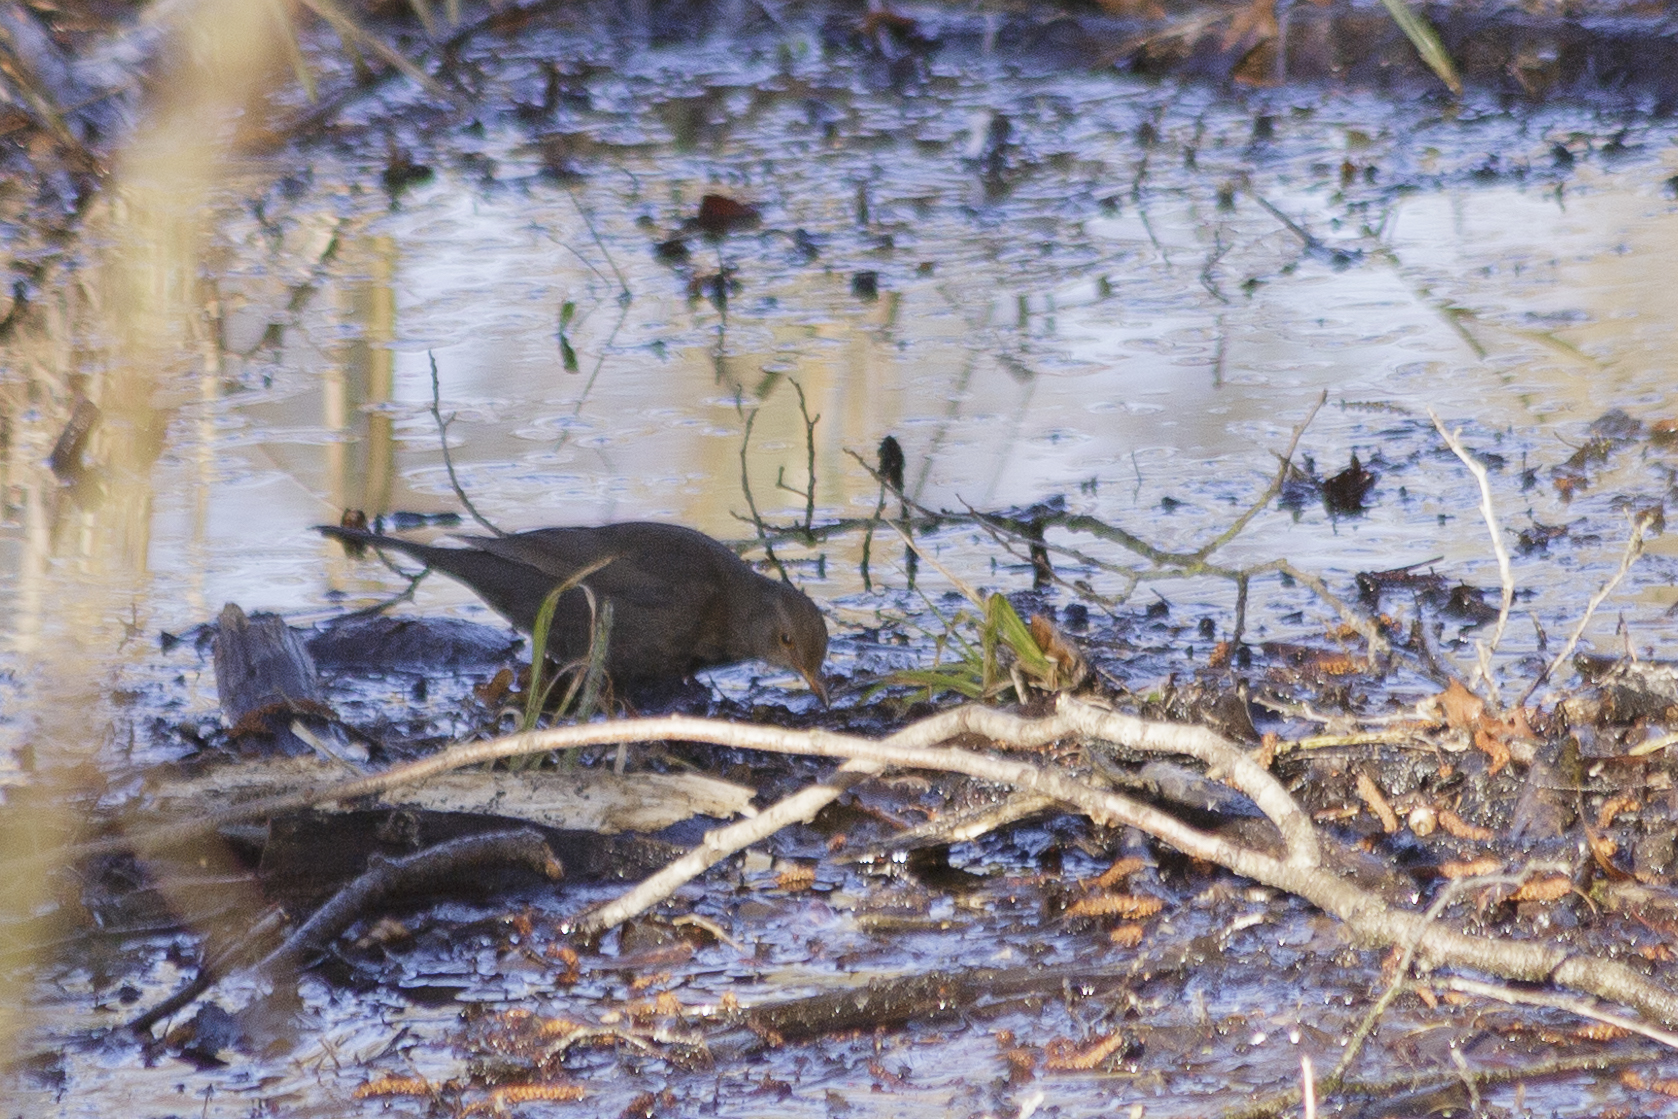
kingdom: Animalia
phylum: Chordata
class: Aves
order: Passeriformes
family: Turdidae
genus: Turdus
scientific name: Turdus merula
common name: Common blackbird
